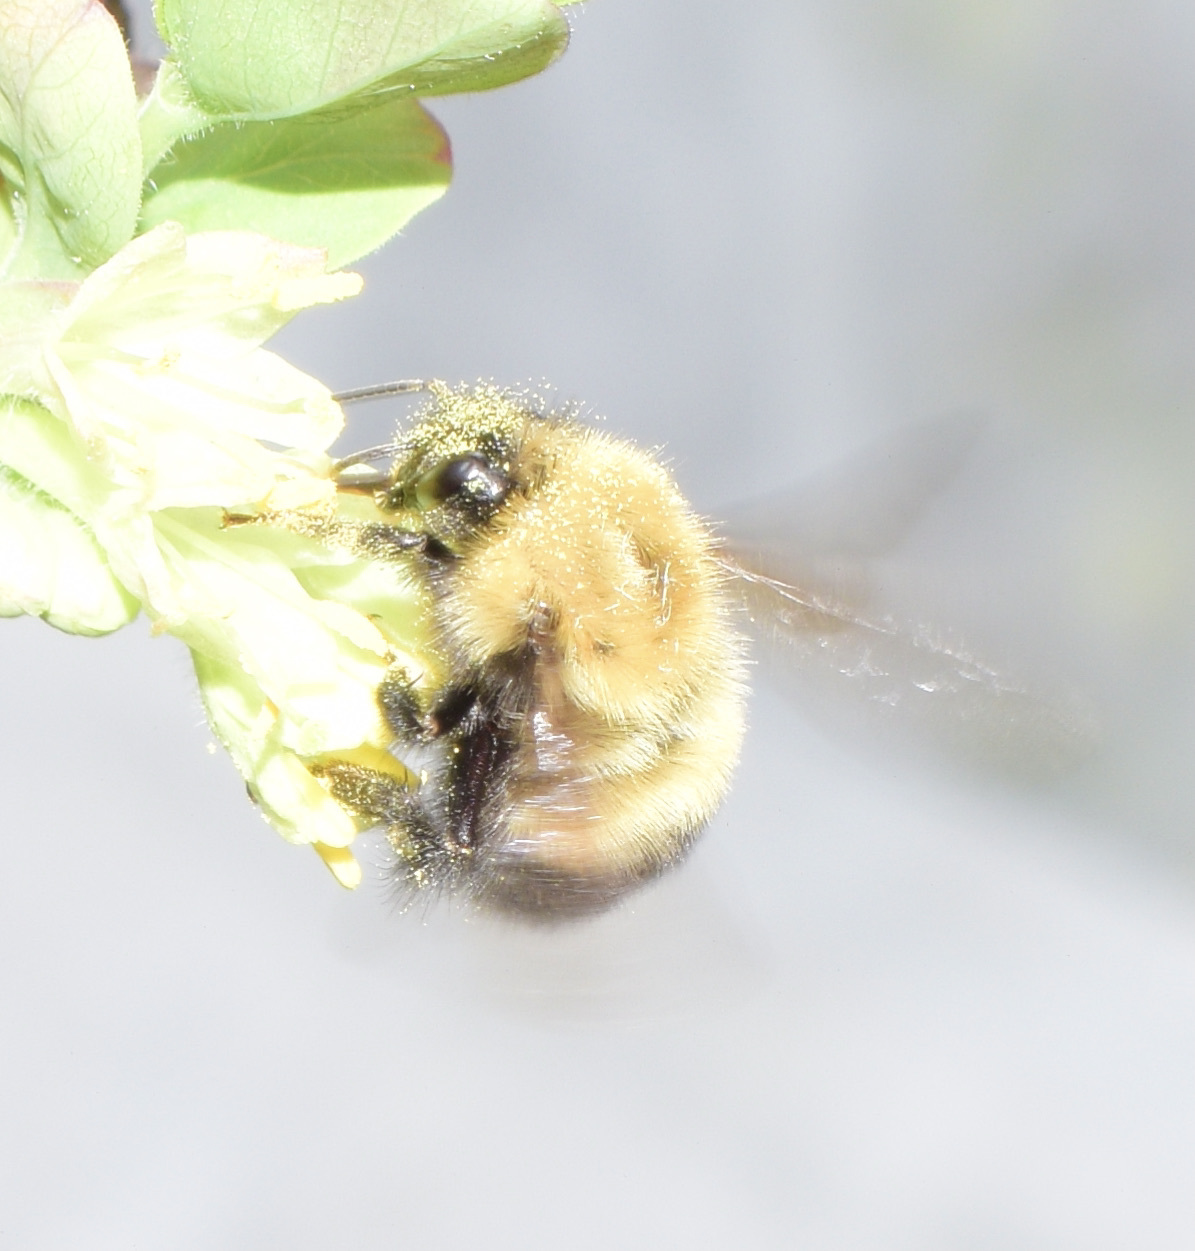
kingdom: Animalia
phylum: Arthropoda
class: Insecta
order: Hymenoptera
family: Apidae
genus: Bombus
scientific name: Bombus perplexus
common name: Confusing bumble bee
